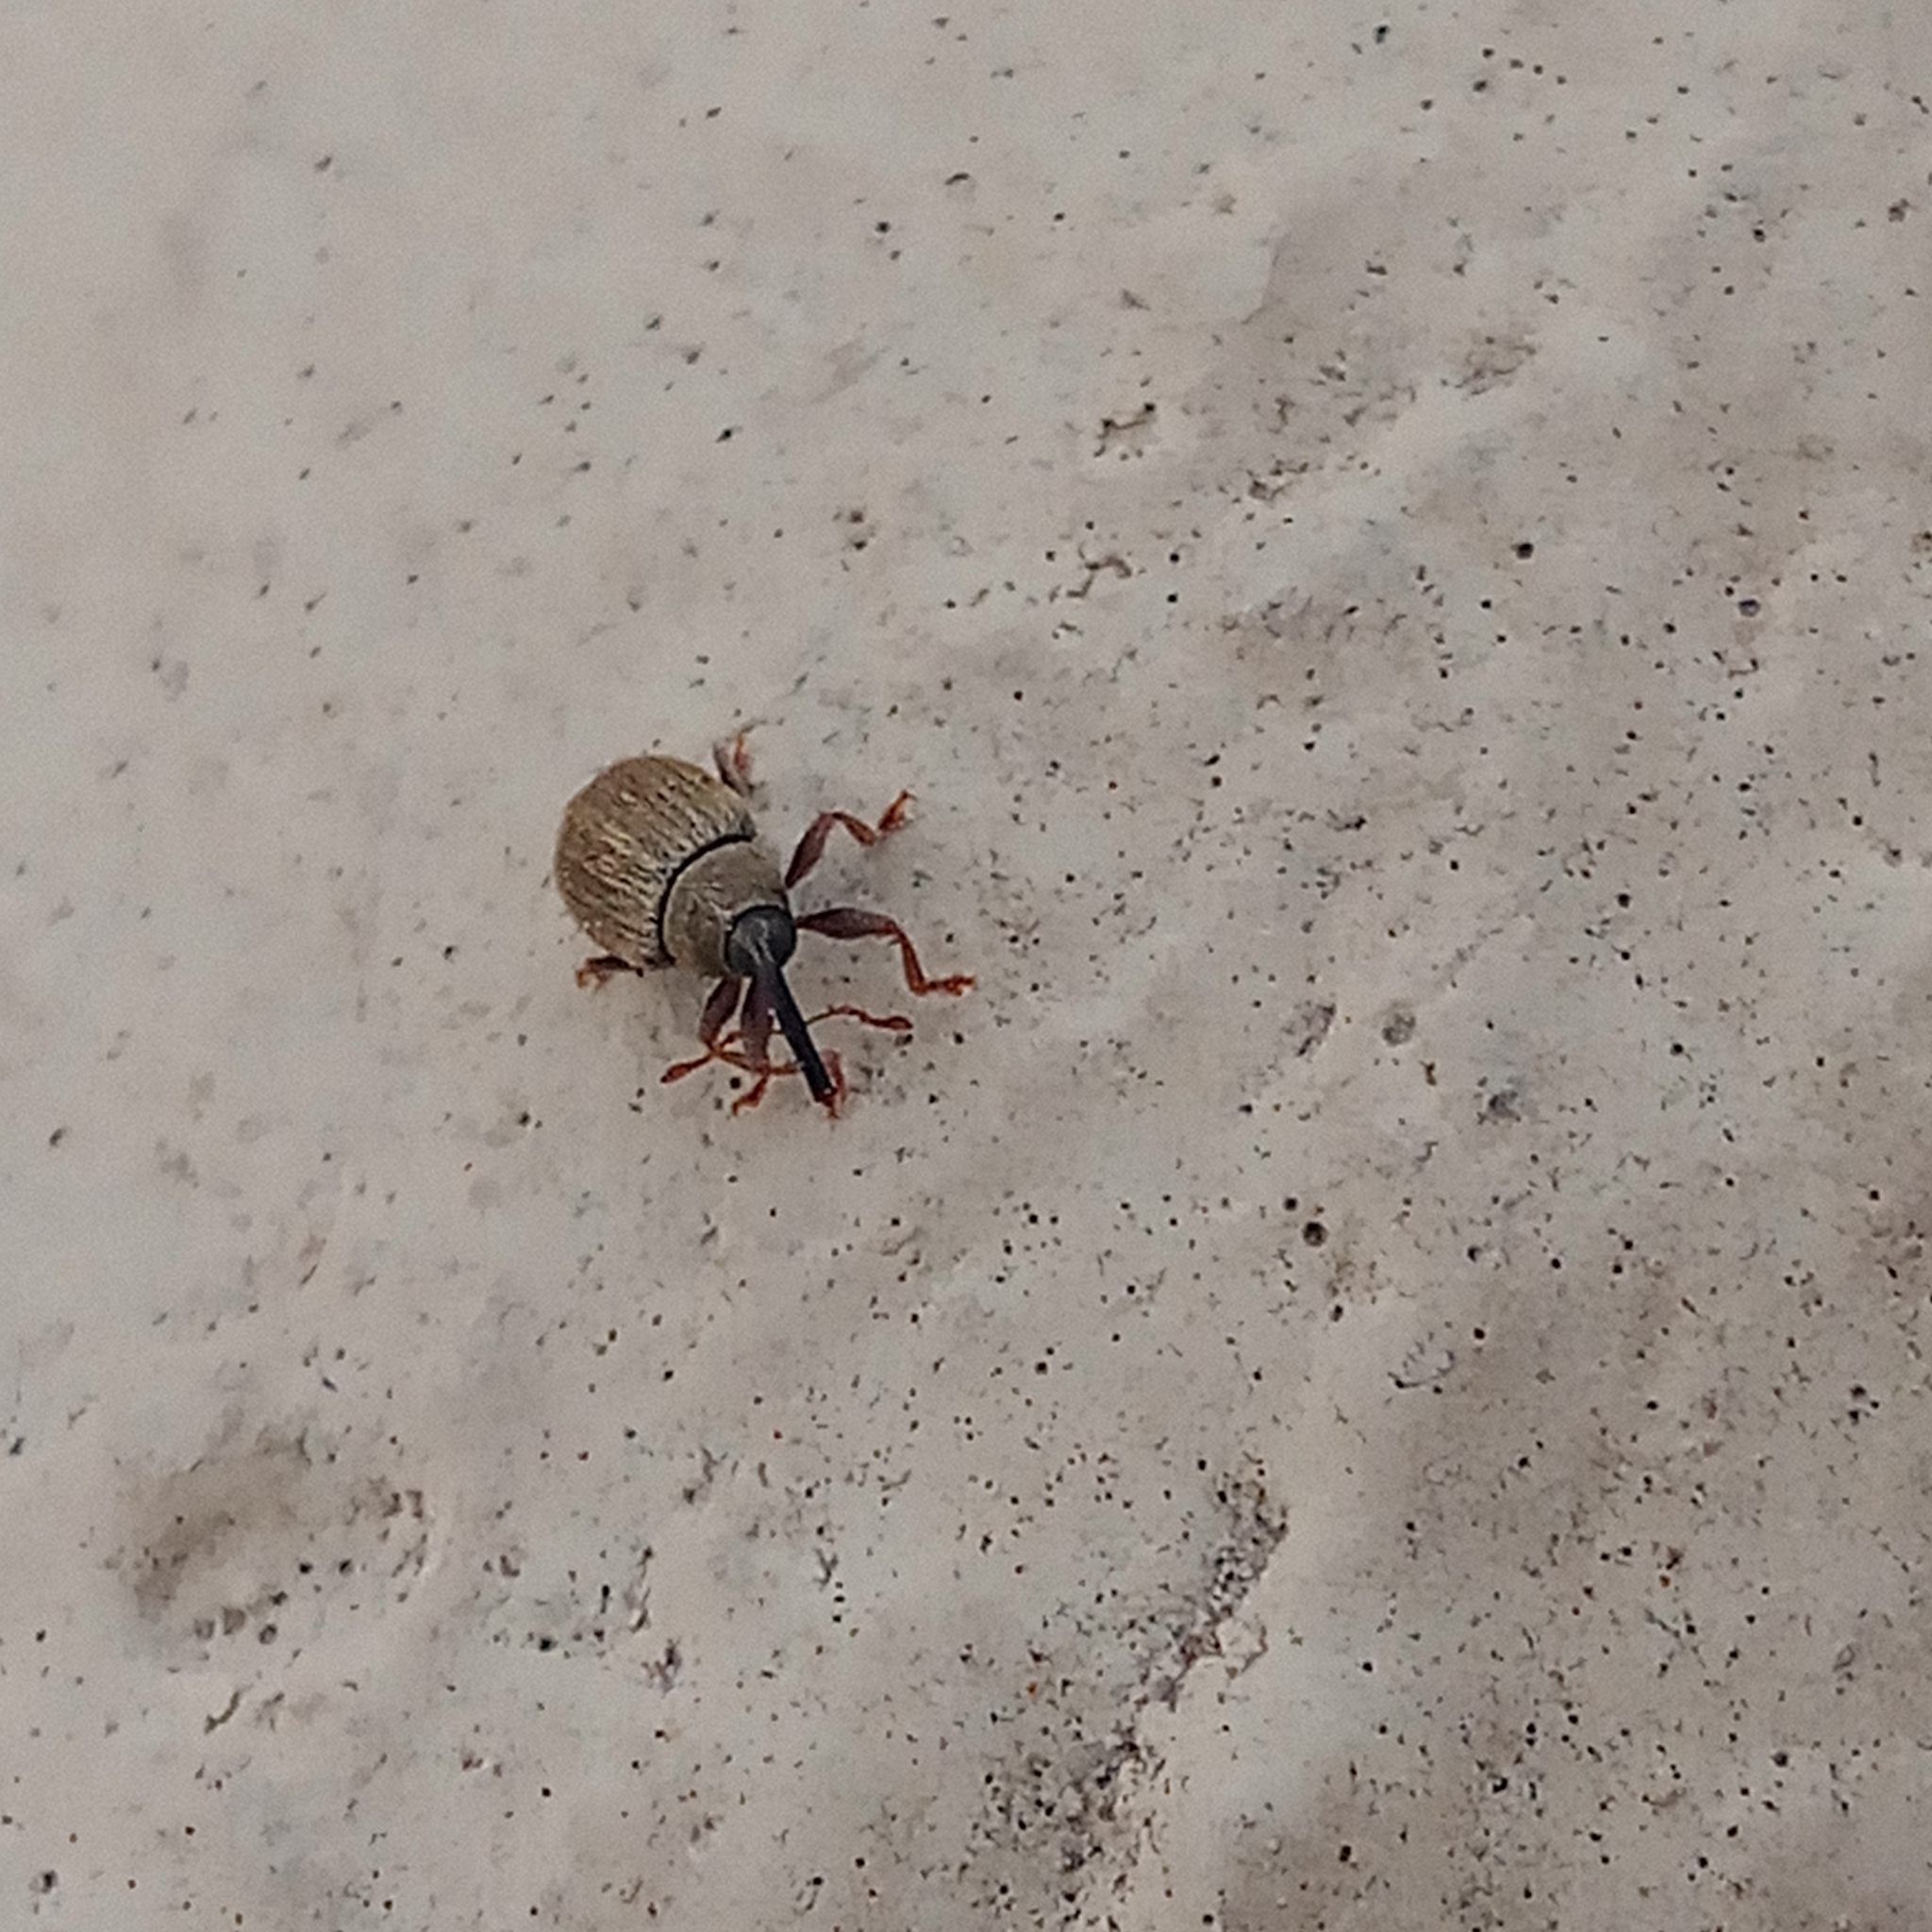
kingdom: Animalia
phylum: Arthropoda
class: Insecta
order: Coleoptera
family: Curculionidae
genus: Acalyptus
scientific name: Acalyptus carpini
